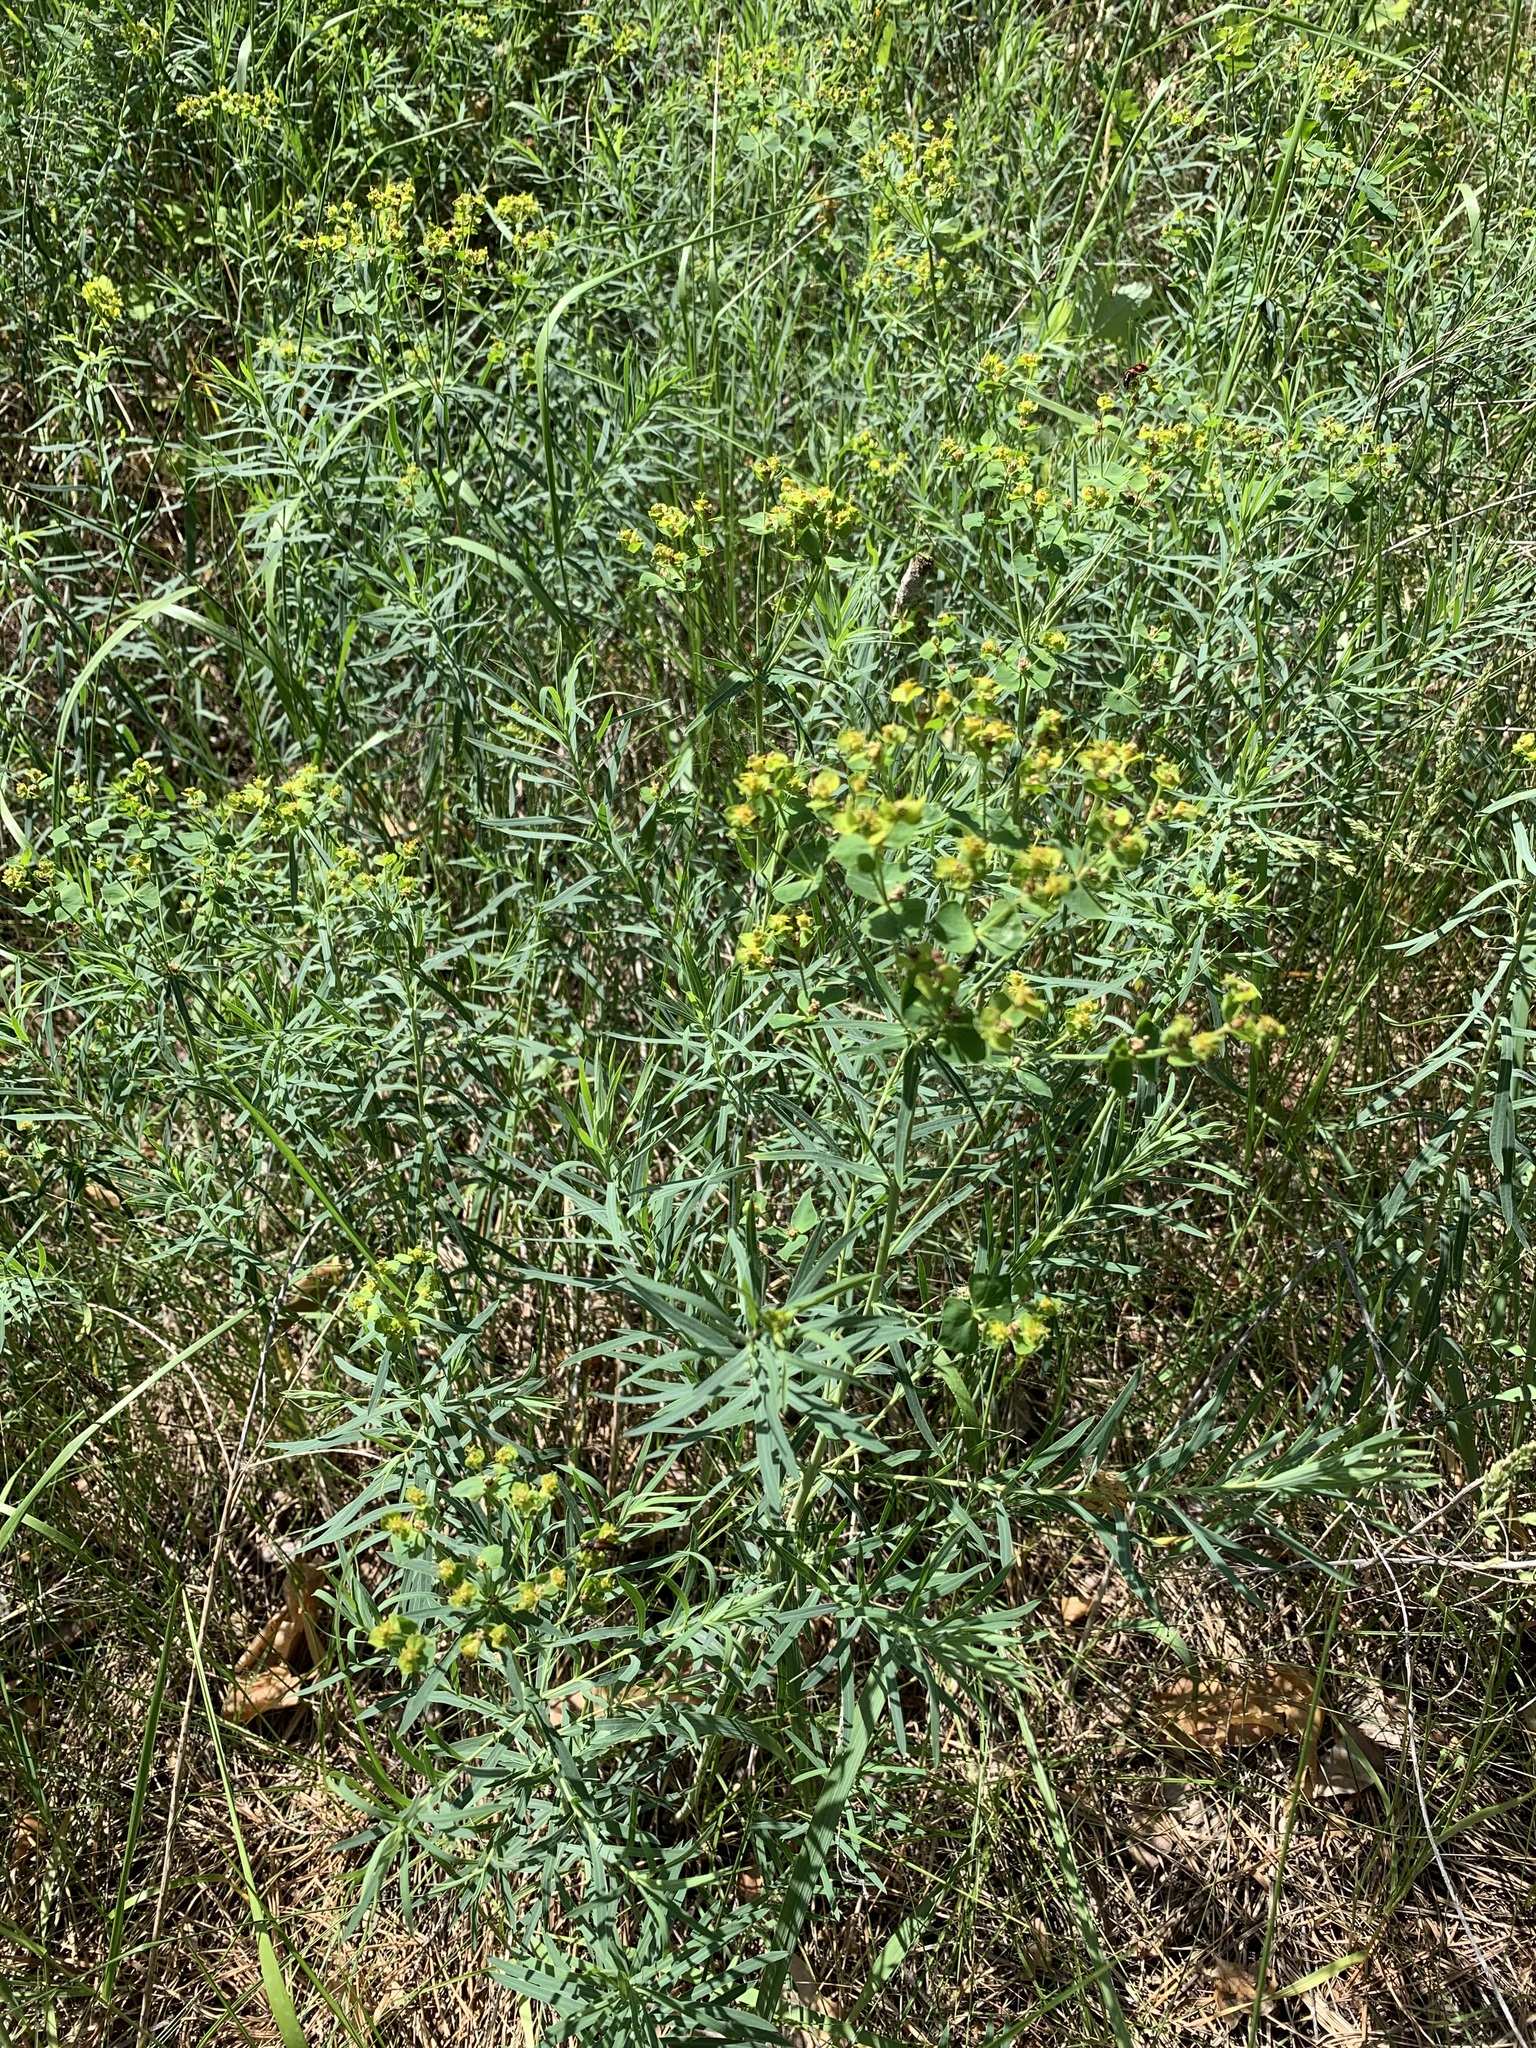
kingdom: Plantae
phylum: Tracheophyta
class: Magnoliopsida
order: Malpighiales
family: Euphorbiaceae
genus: Euphorbia
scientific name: Euphorbia uralensis
